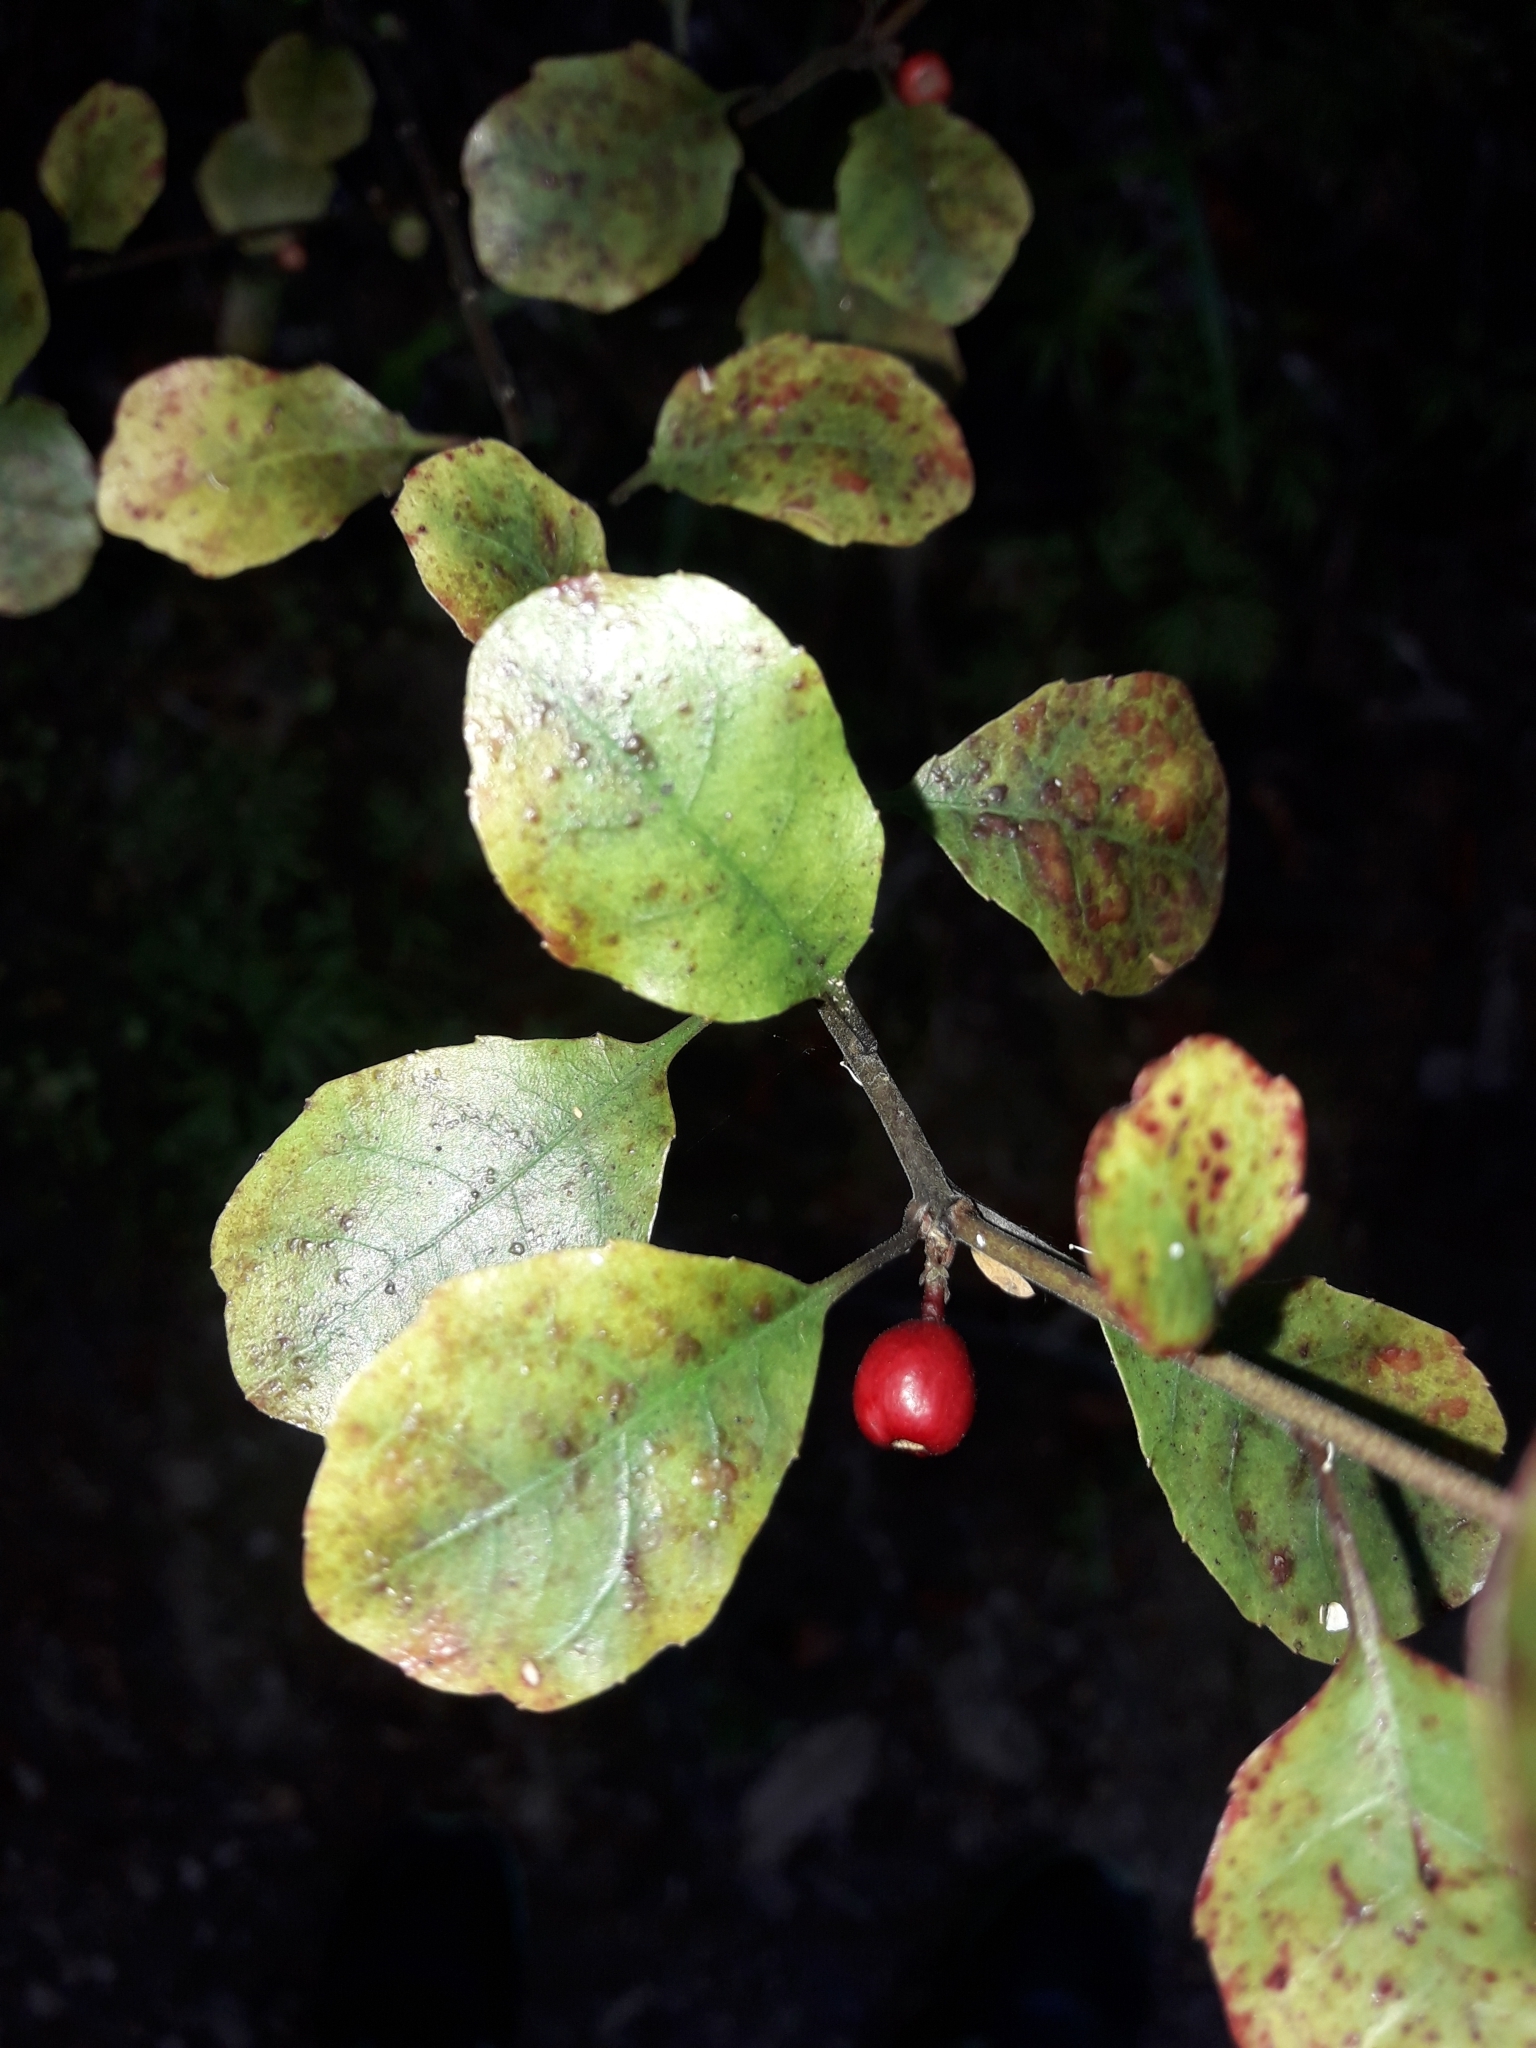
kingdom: Plantae
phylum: Tracheophyta
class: Magnoliopsida
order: Asterales
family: Alseuosmiaceae
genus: Alseuosmia
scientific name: Alseuosmia banksii
